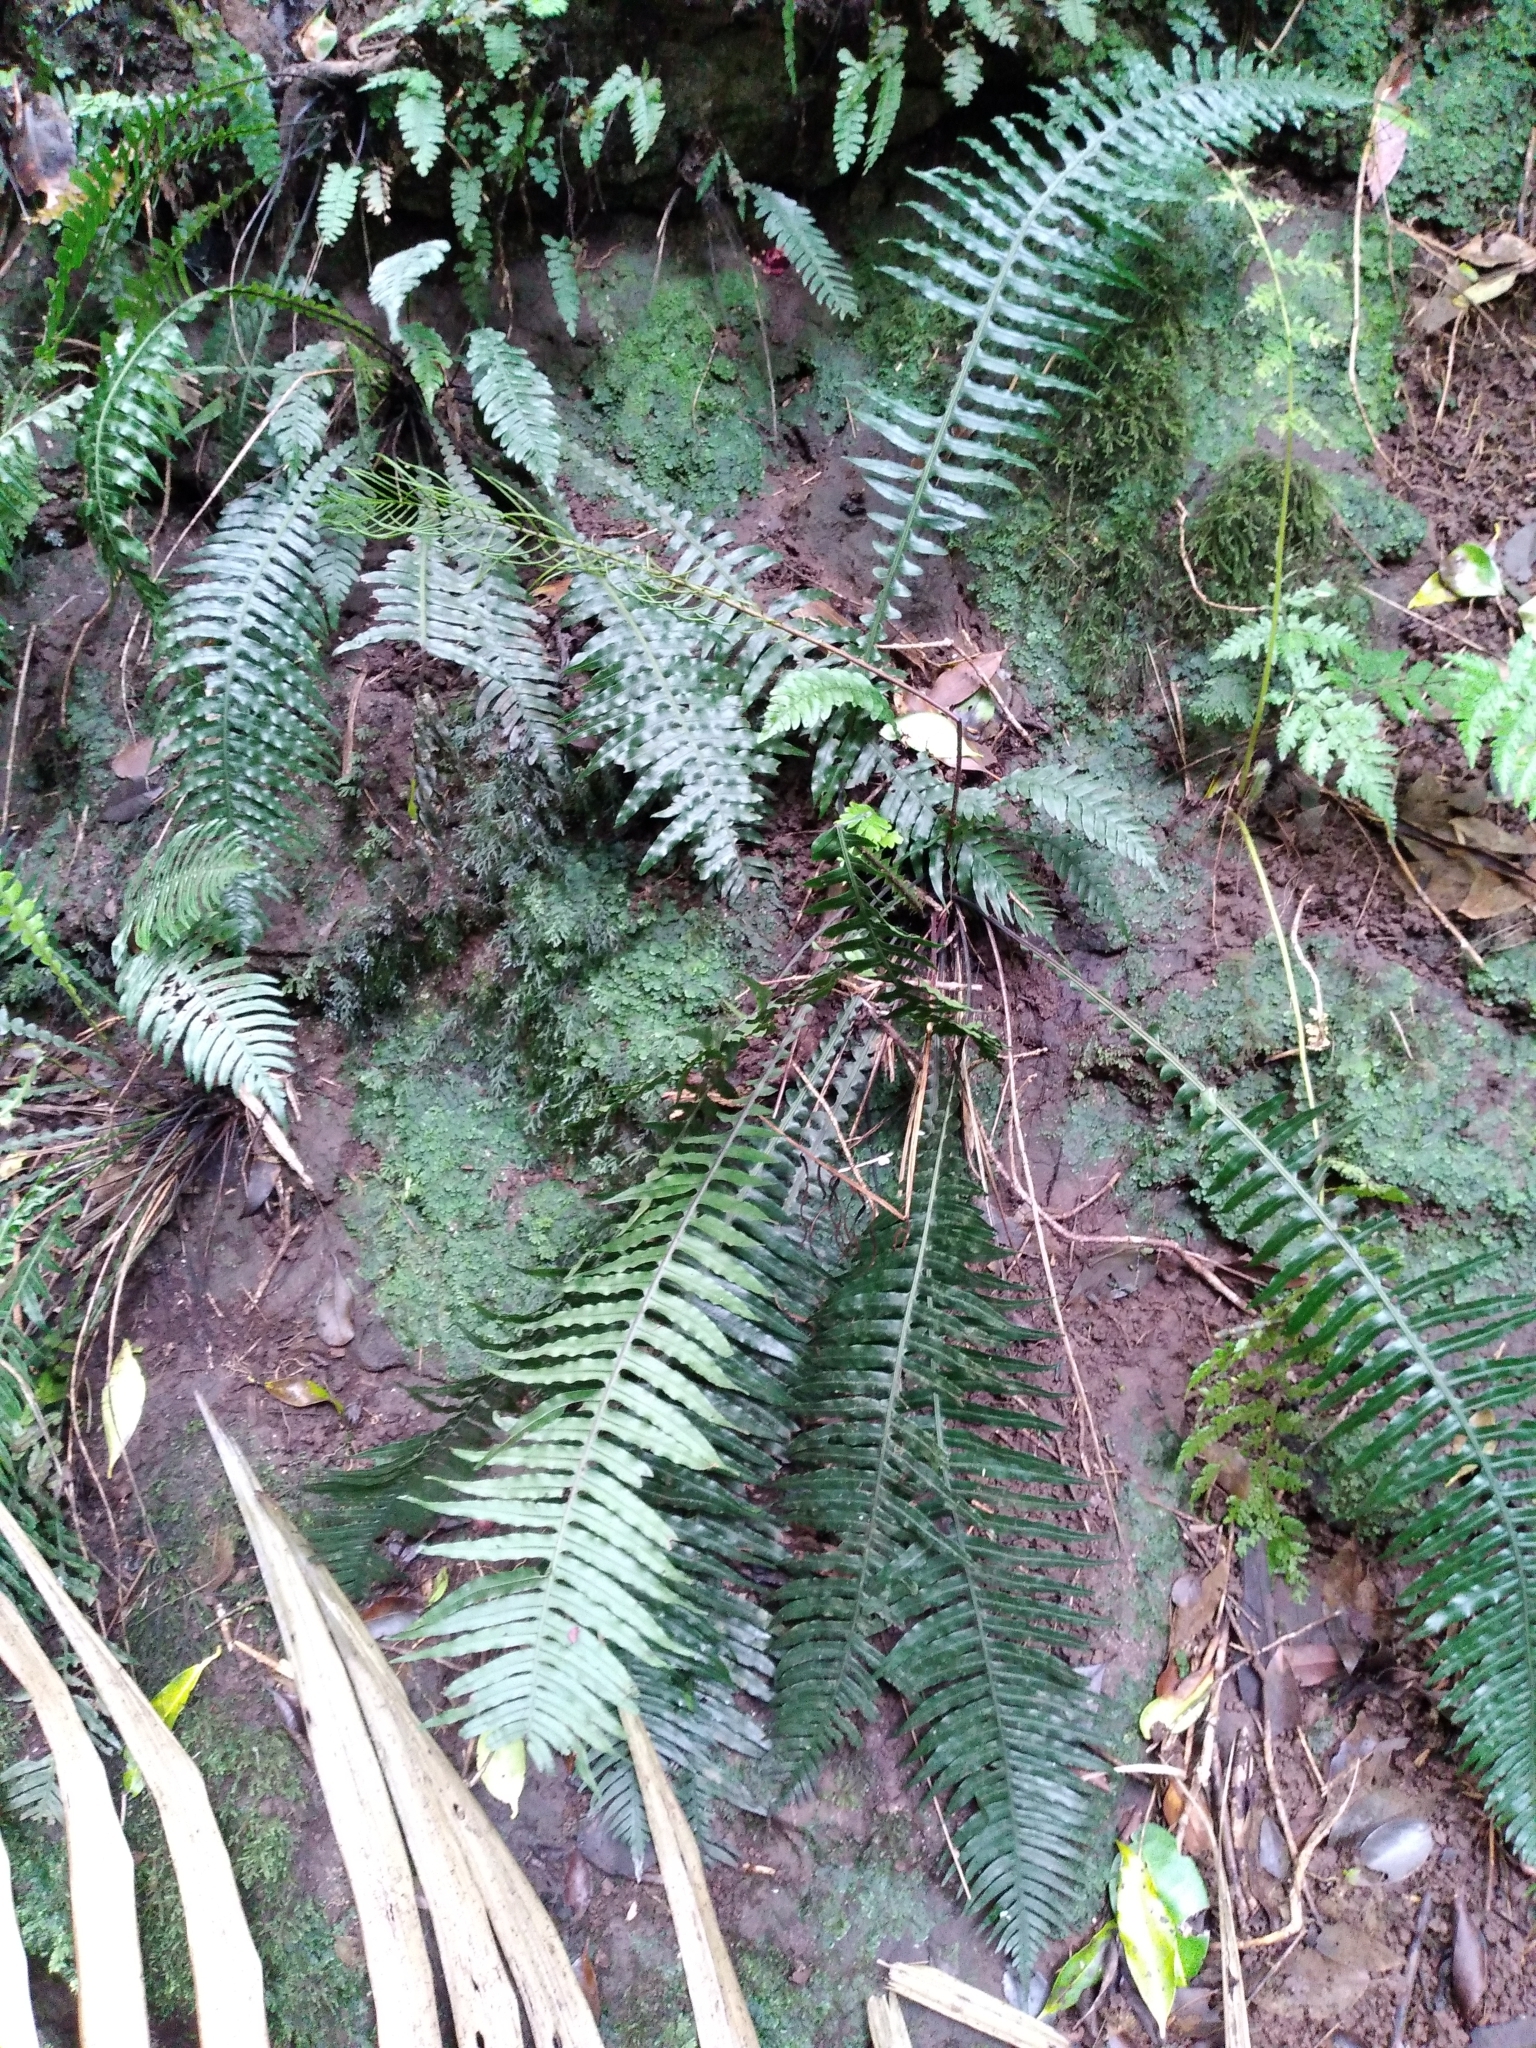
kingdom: Plantae
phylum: Tracheophyta
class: Polypodiopsida
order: Polypodiales
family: Blechnaceae
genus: Austroblechnum
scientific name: Austroblechnum norfolkianum
